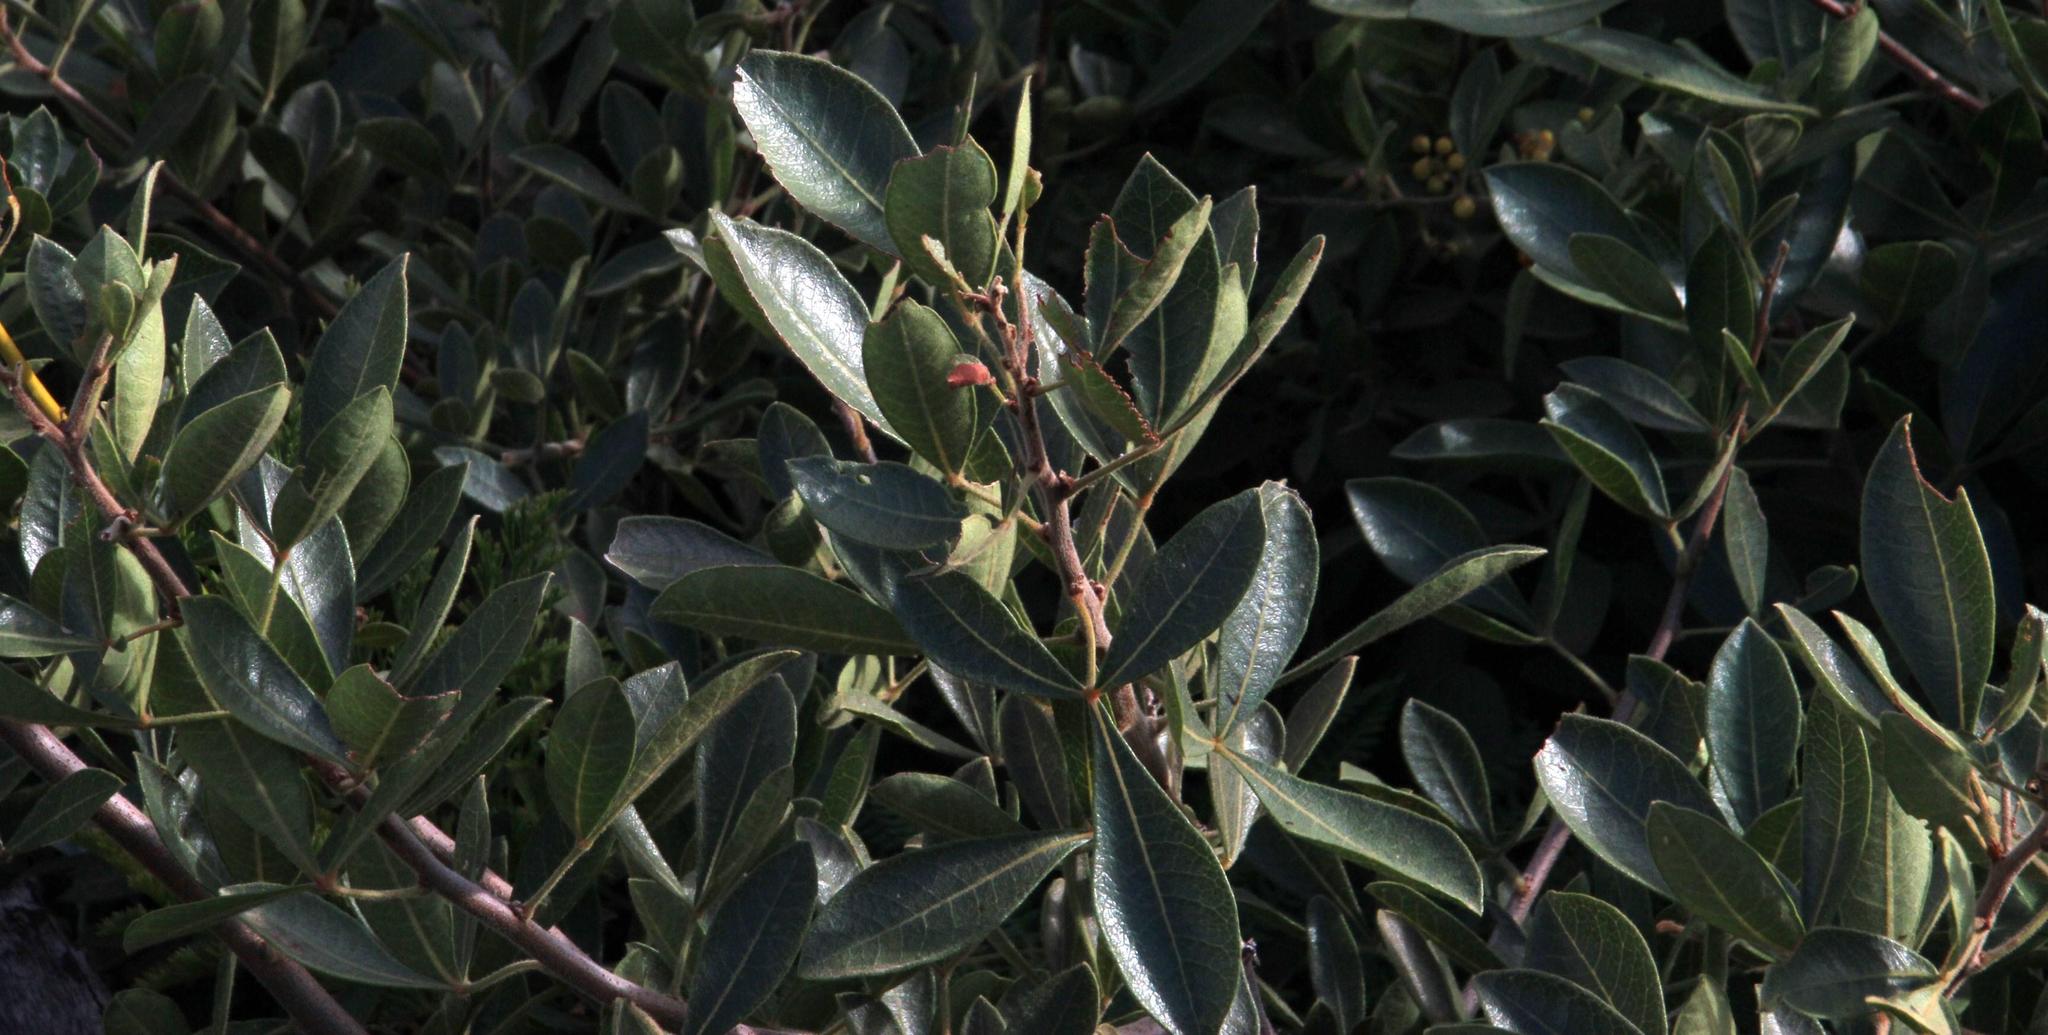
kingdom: Plantae
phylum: Tracheophyta
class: Magnoliopsida
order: Sapindales
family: Anacardiaceae
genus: Searsia
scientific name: Searsia laevigata
